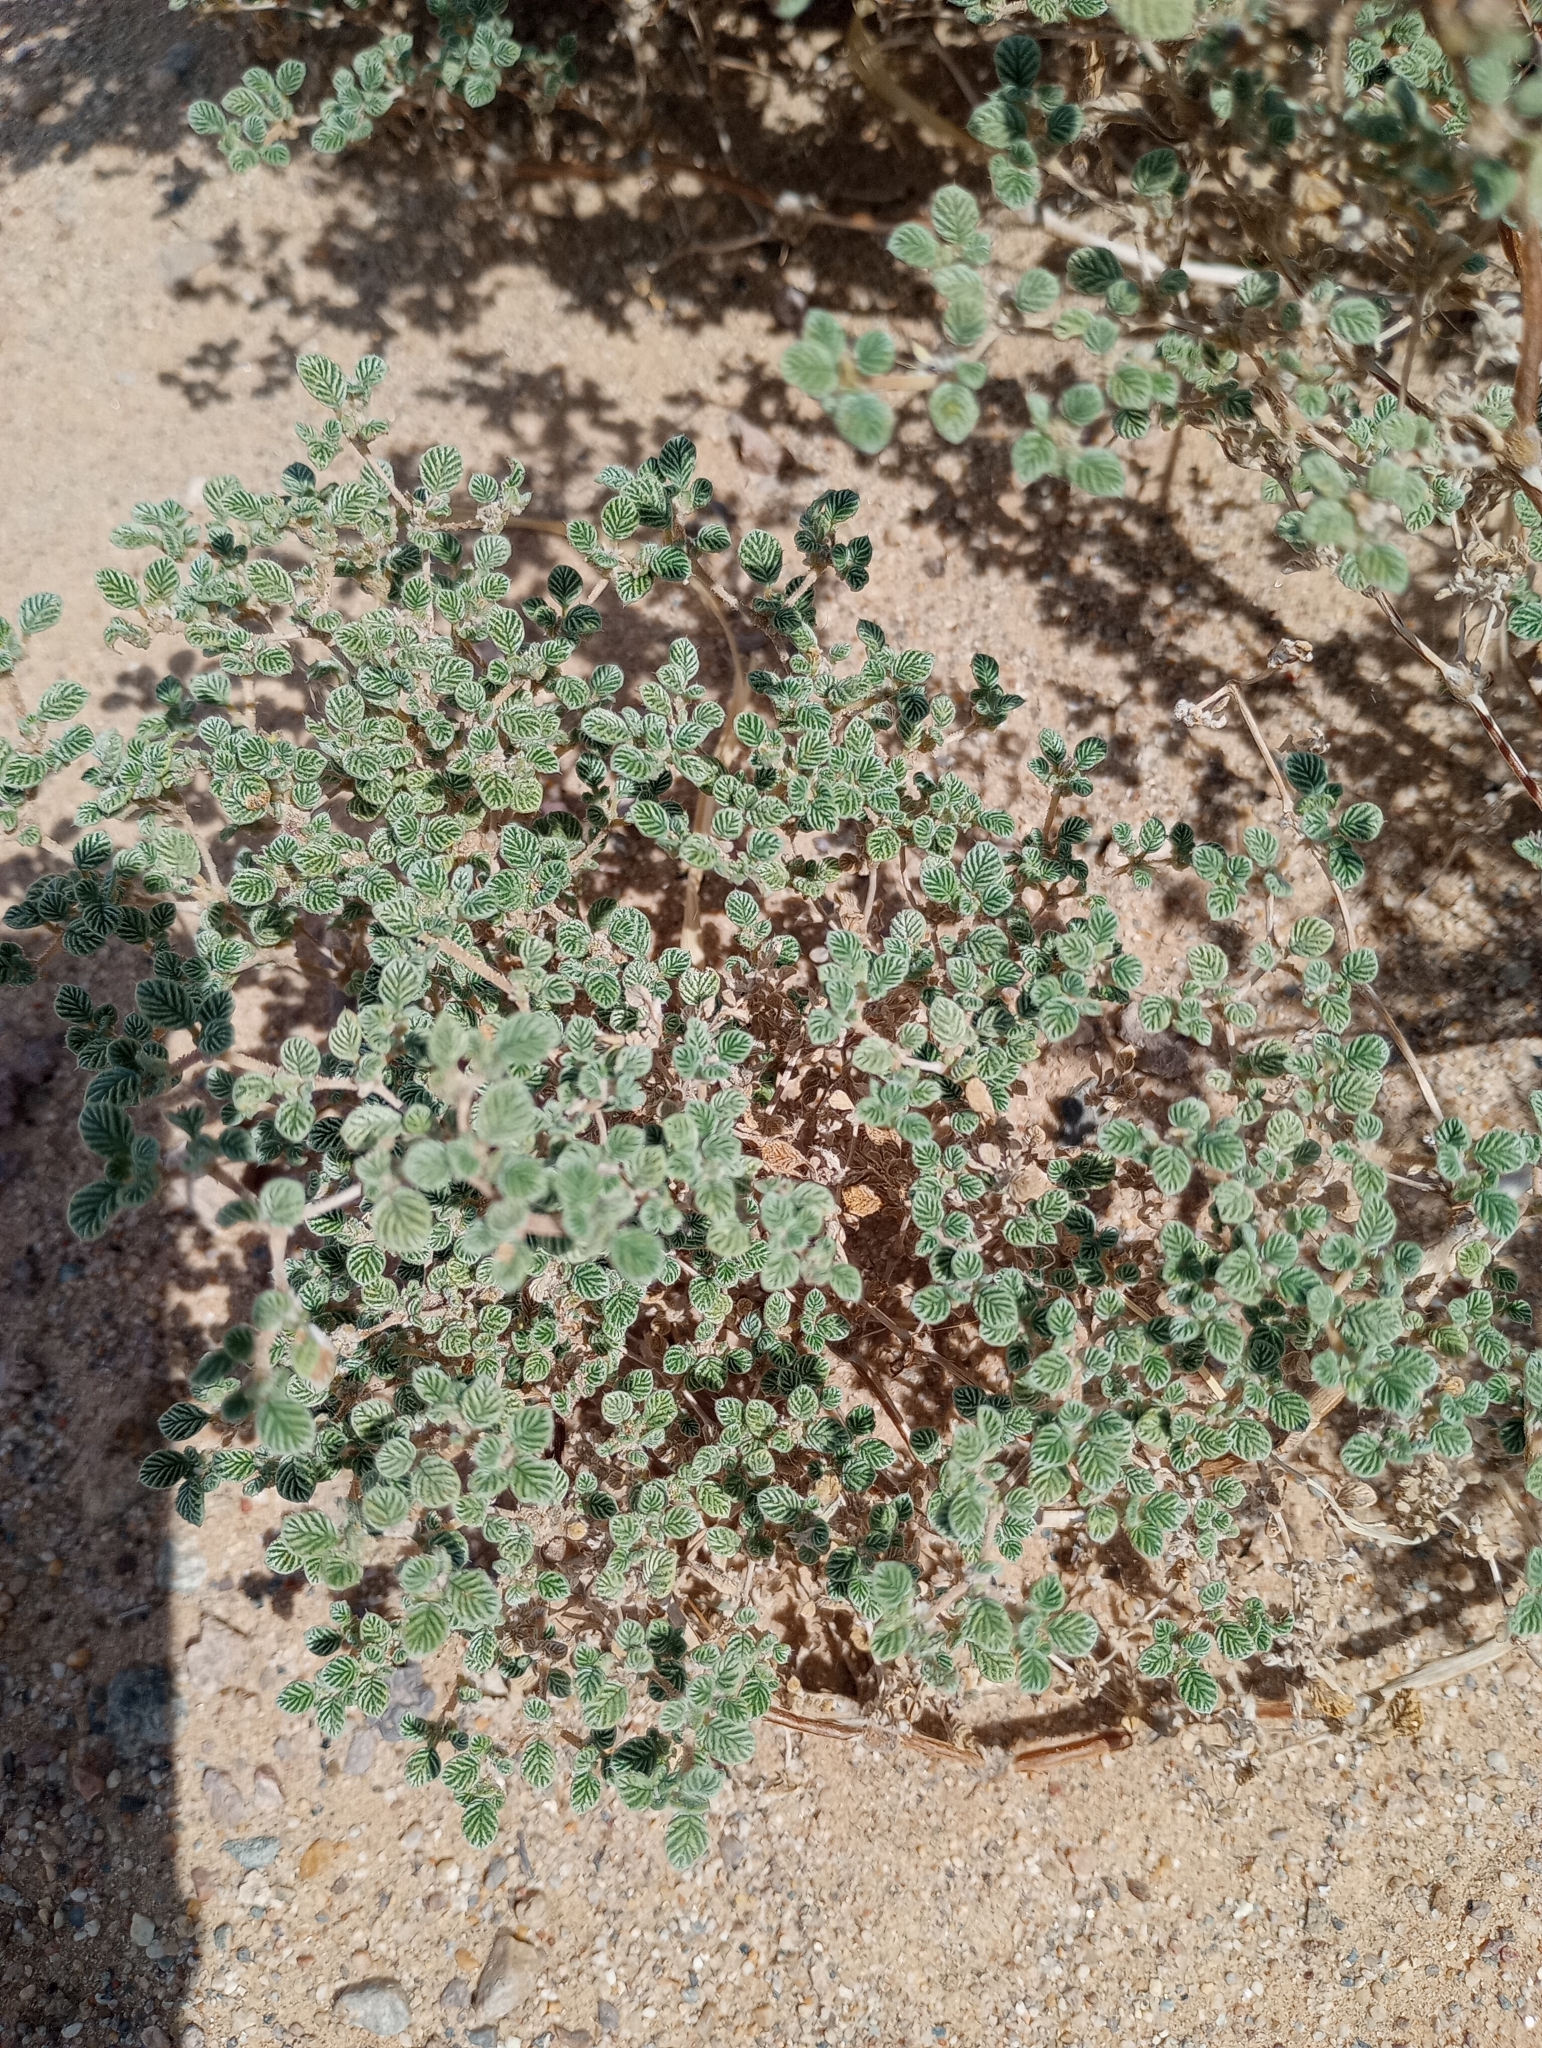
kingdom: Plantae
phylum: Tracheophyta
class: Magnoliopsida
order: Boraginales
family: Ehretiaceae
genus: Tiquilia
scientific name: Tiquilia plicata
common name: Fan-leaf tiquilia
